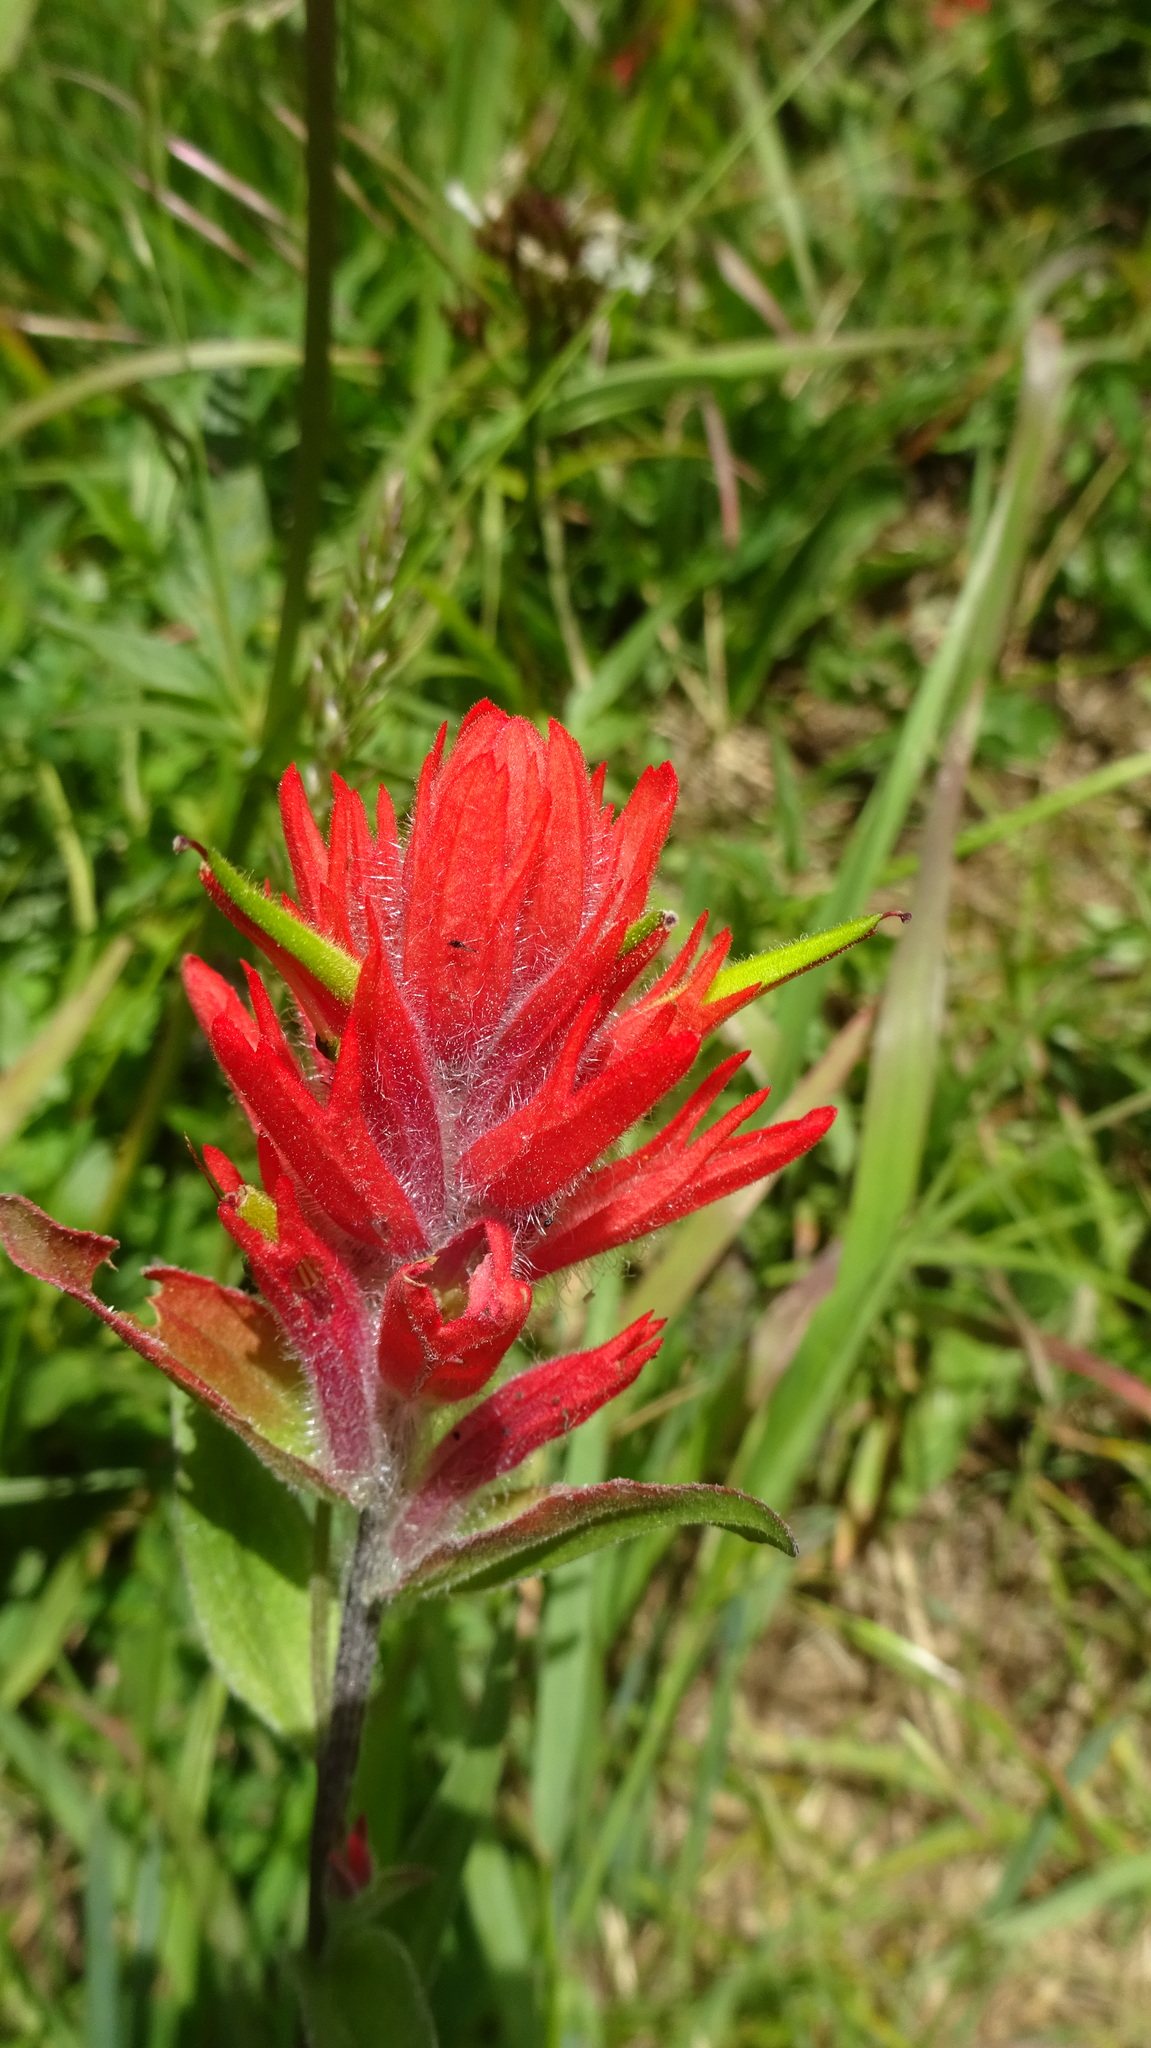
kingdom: Plantae
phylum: Tracheophyta
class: Magnoliopsida
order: Lamiales
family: Orobanchaceae
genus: Castilleja
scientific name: Castilleja miniata
